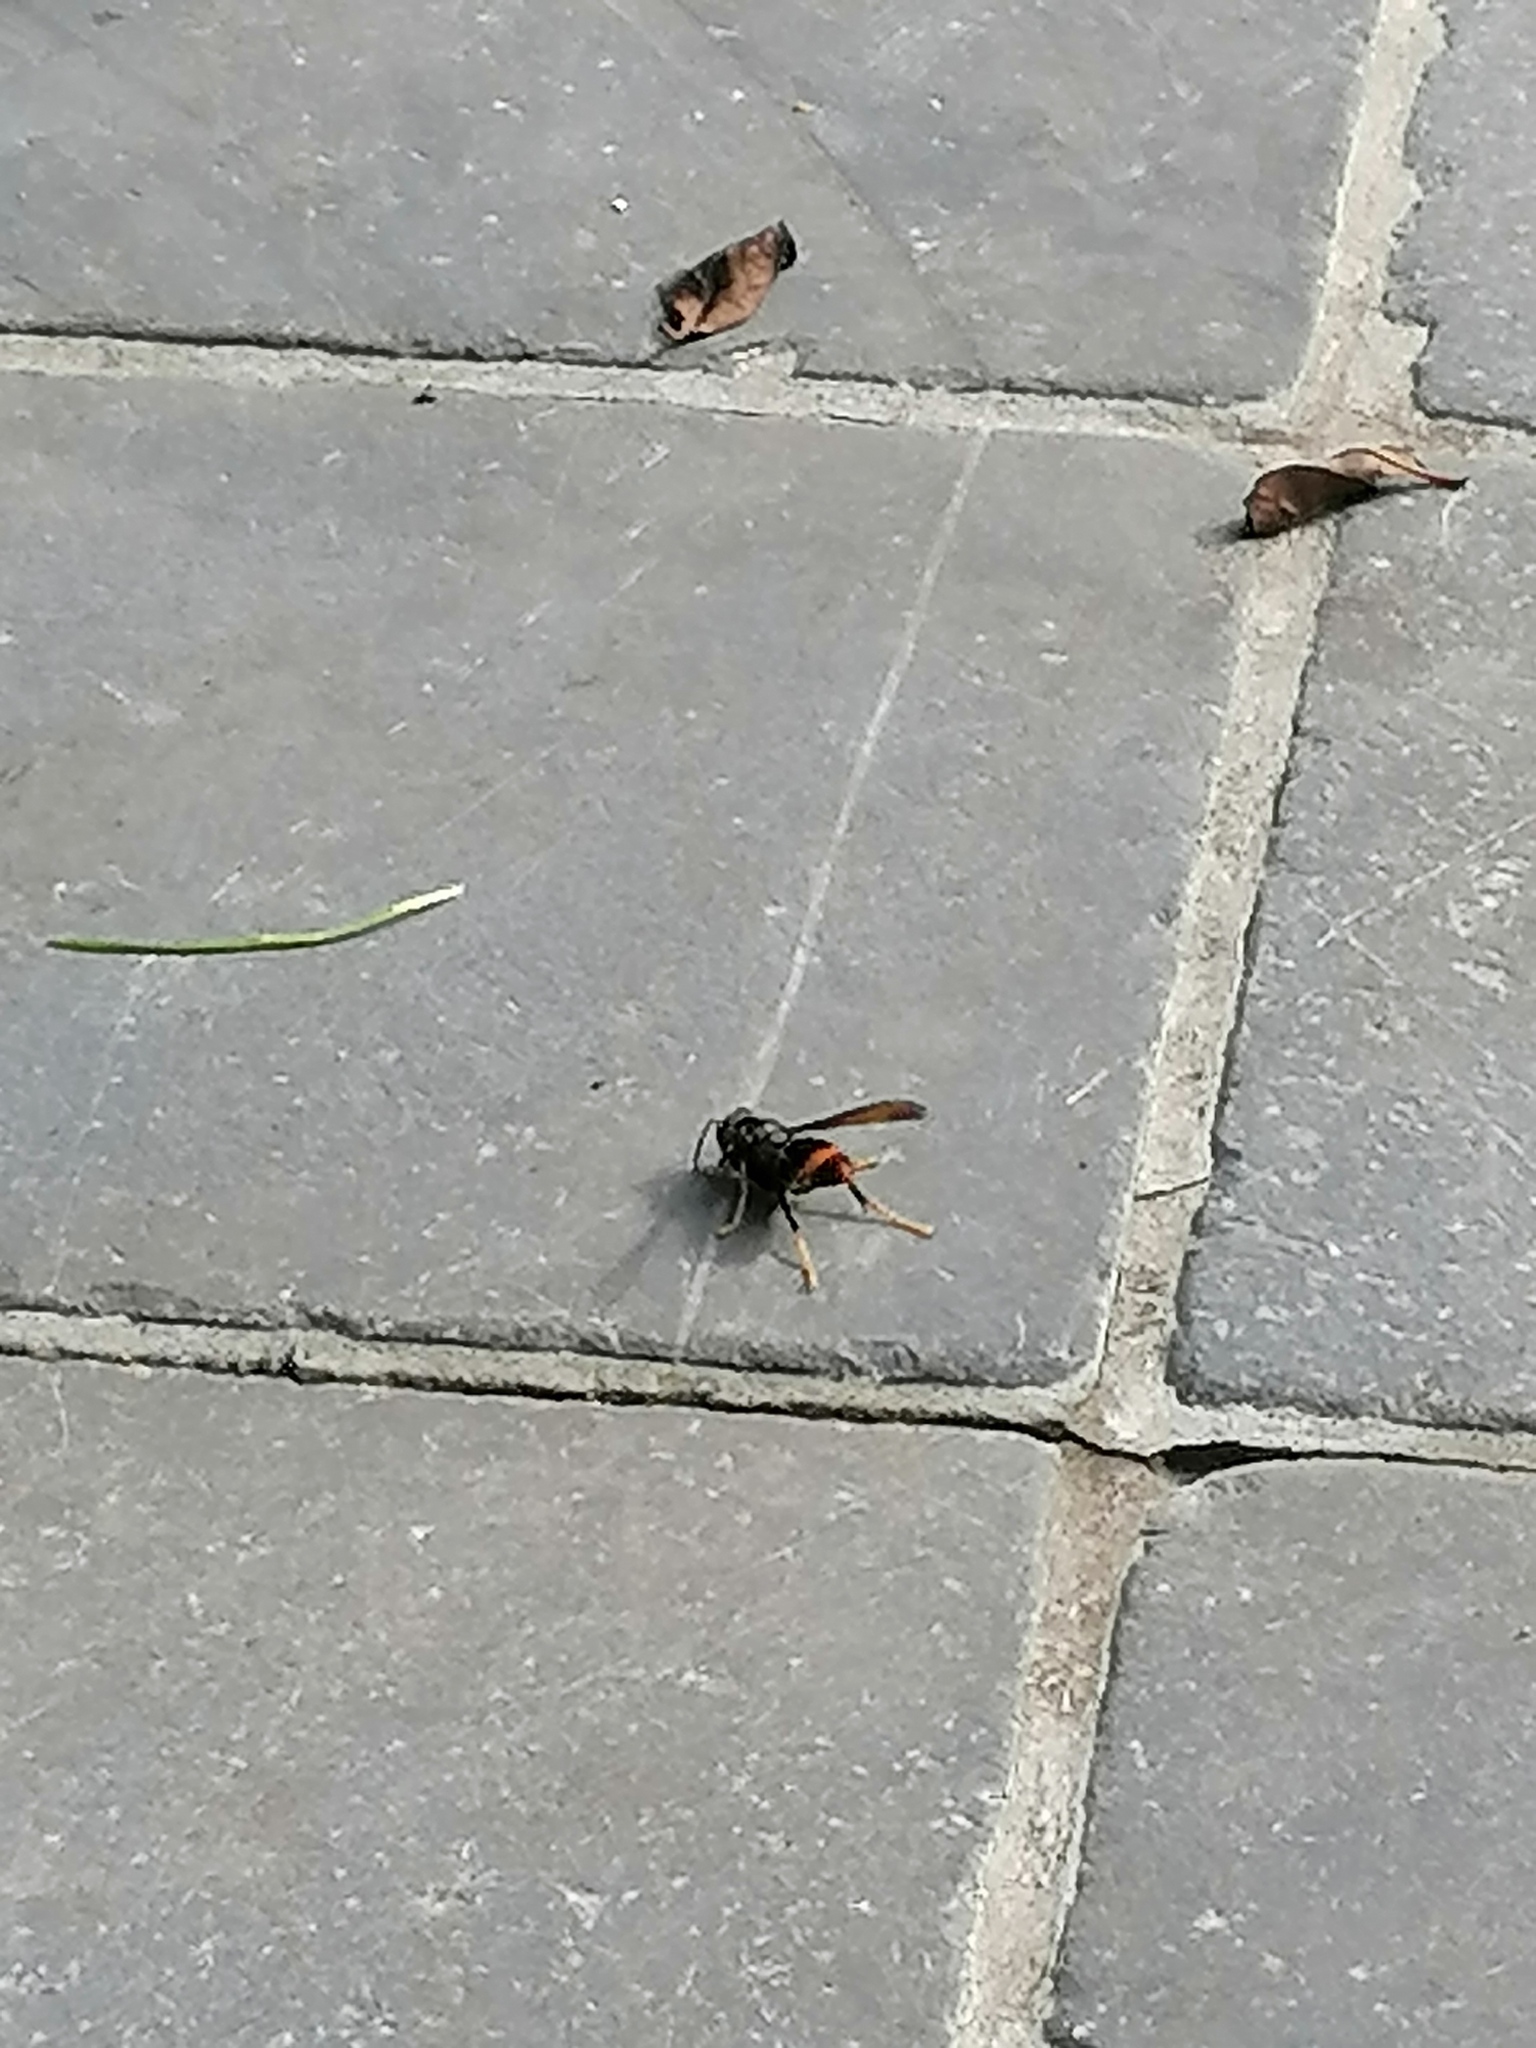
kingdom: Animalia
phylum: Arthropoda
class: Insecta
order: Hymenoptera
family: Vespidae
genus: Vespa
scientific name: Vespa velutina
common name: Asian hornet
